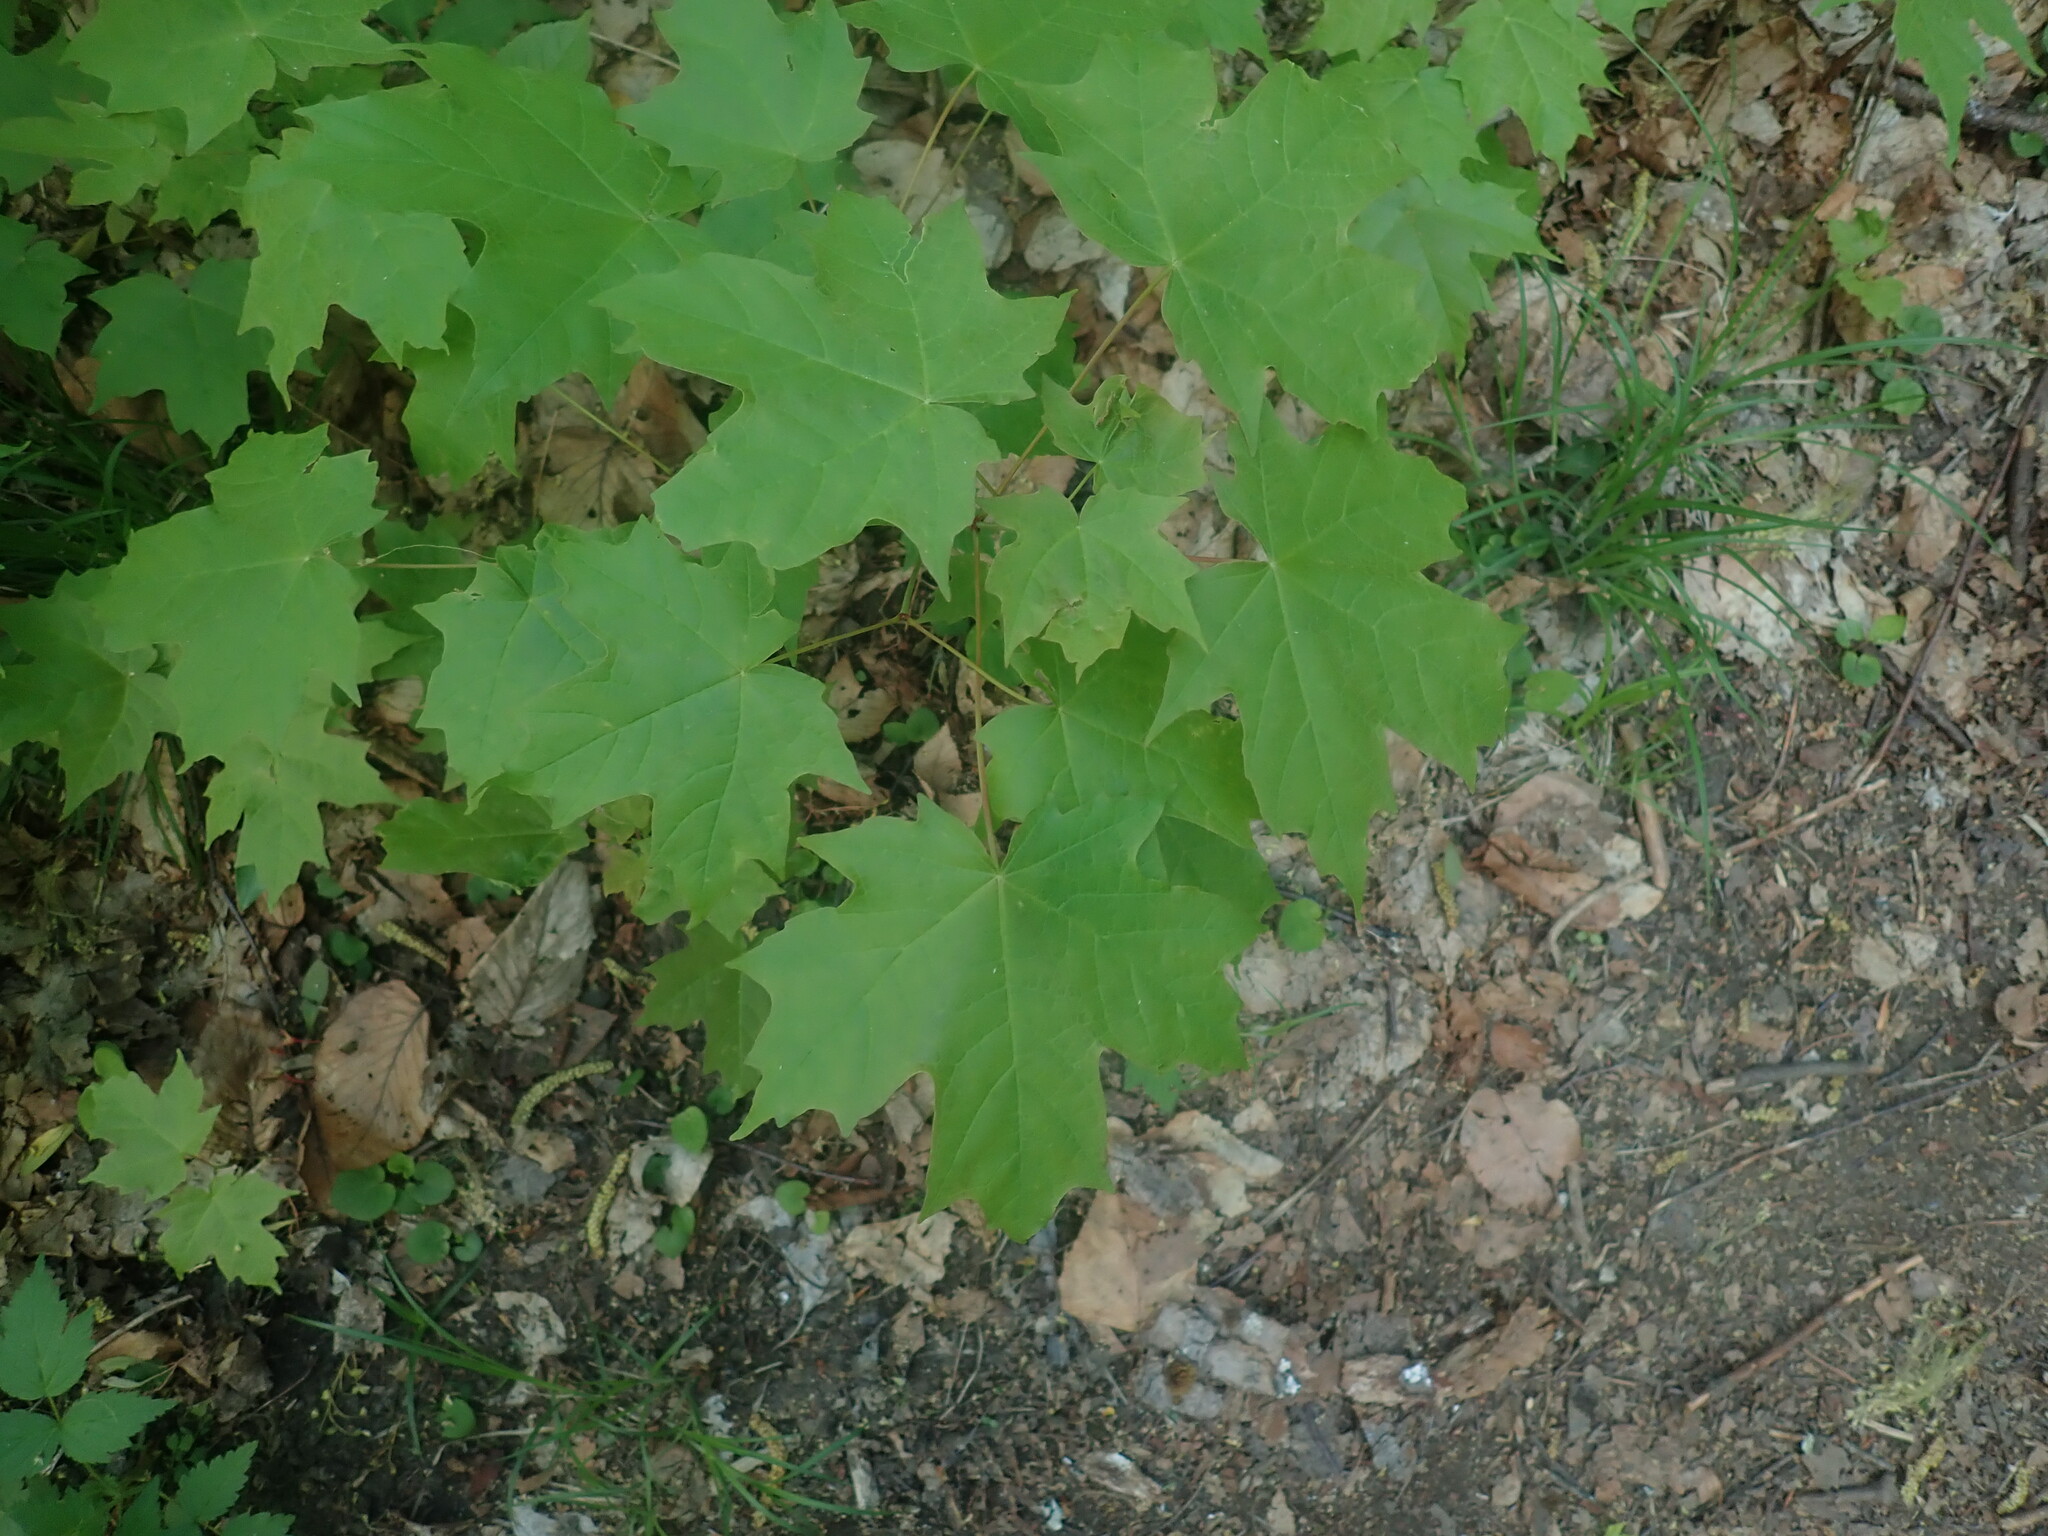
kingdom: Plantae
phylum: Tracheophyta
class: Magnoliopsida
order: Sapindales
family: Sapindaceae
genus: Acer
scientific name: Acer saccharum
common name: Sugar maple
